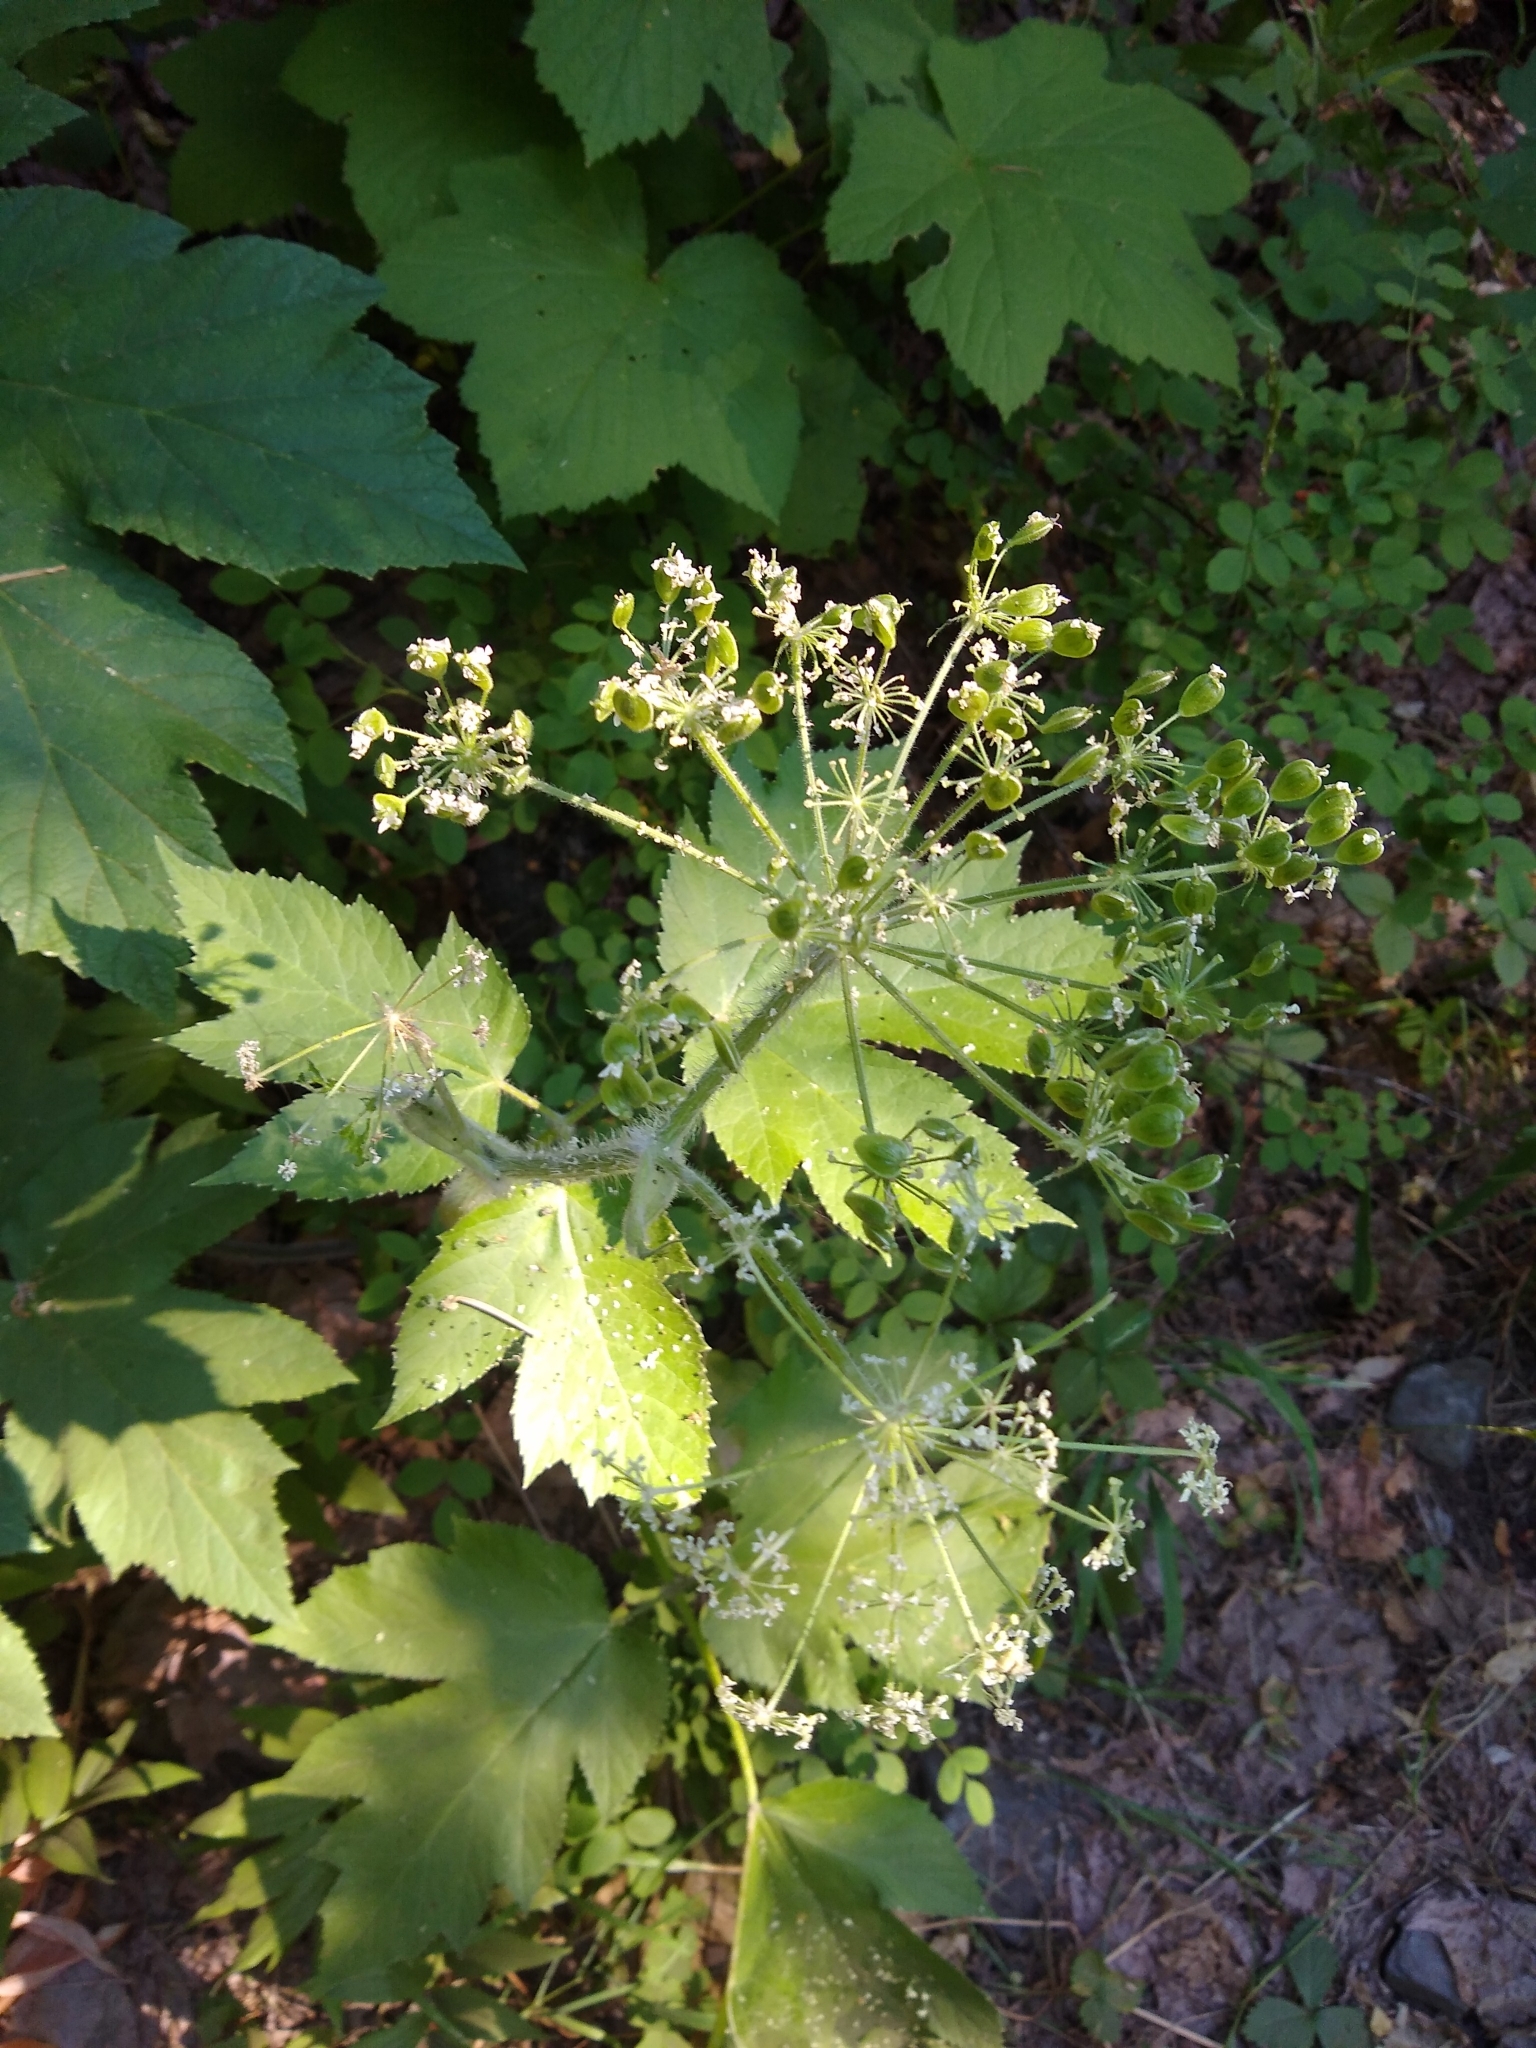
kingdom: Plantae
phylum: Tracheophyta
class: Magnoliopsida
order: Apiales
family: Apiaceae
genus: Heracleum
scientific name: Heracleum maximum
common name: American cow parsnip
